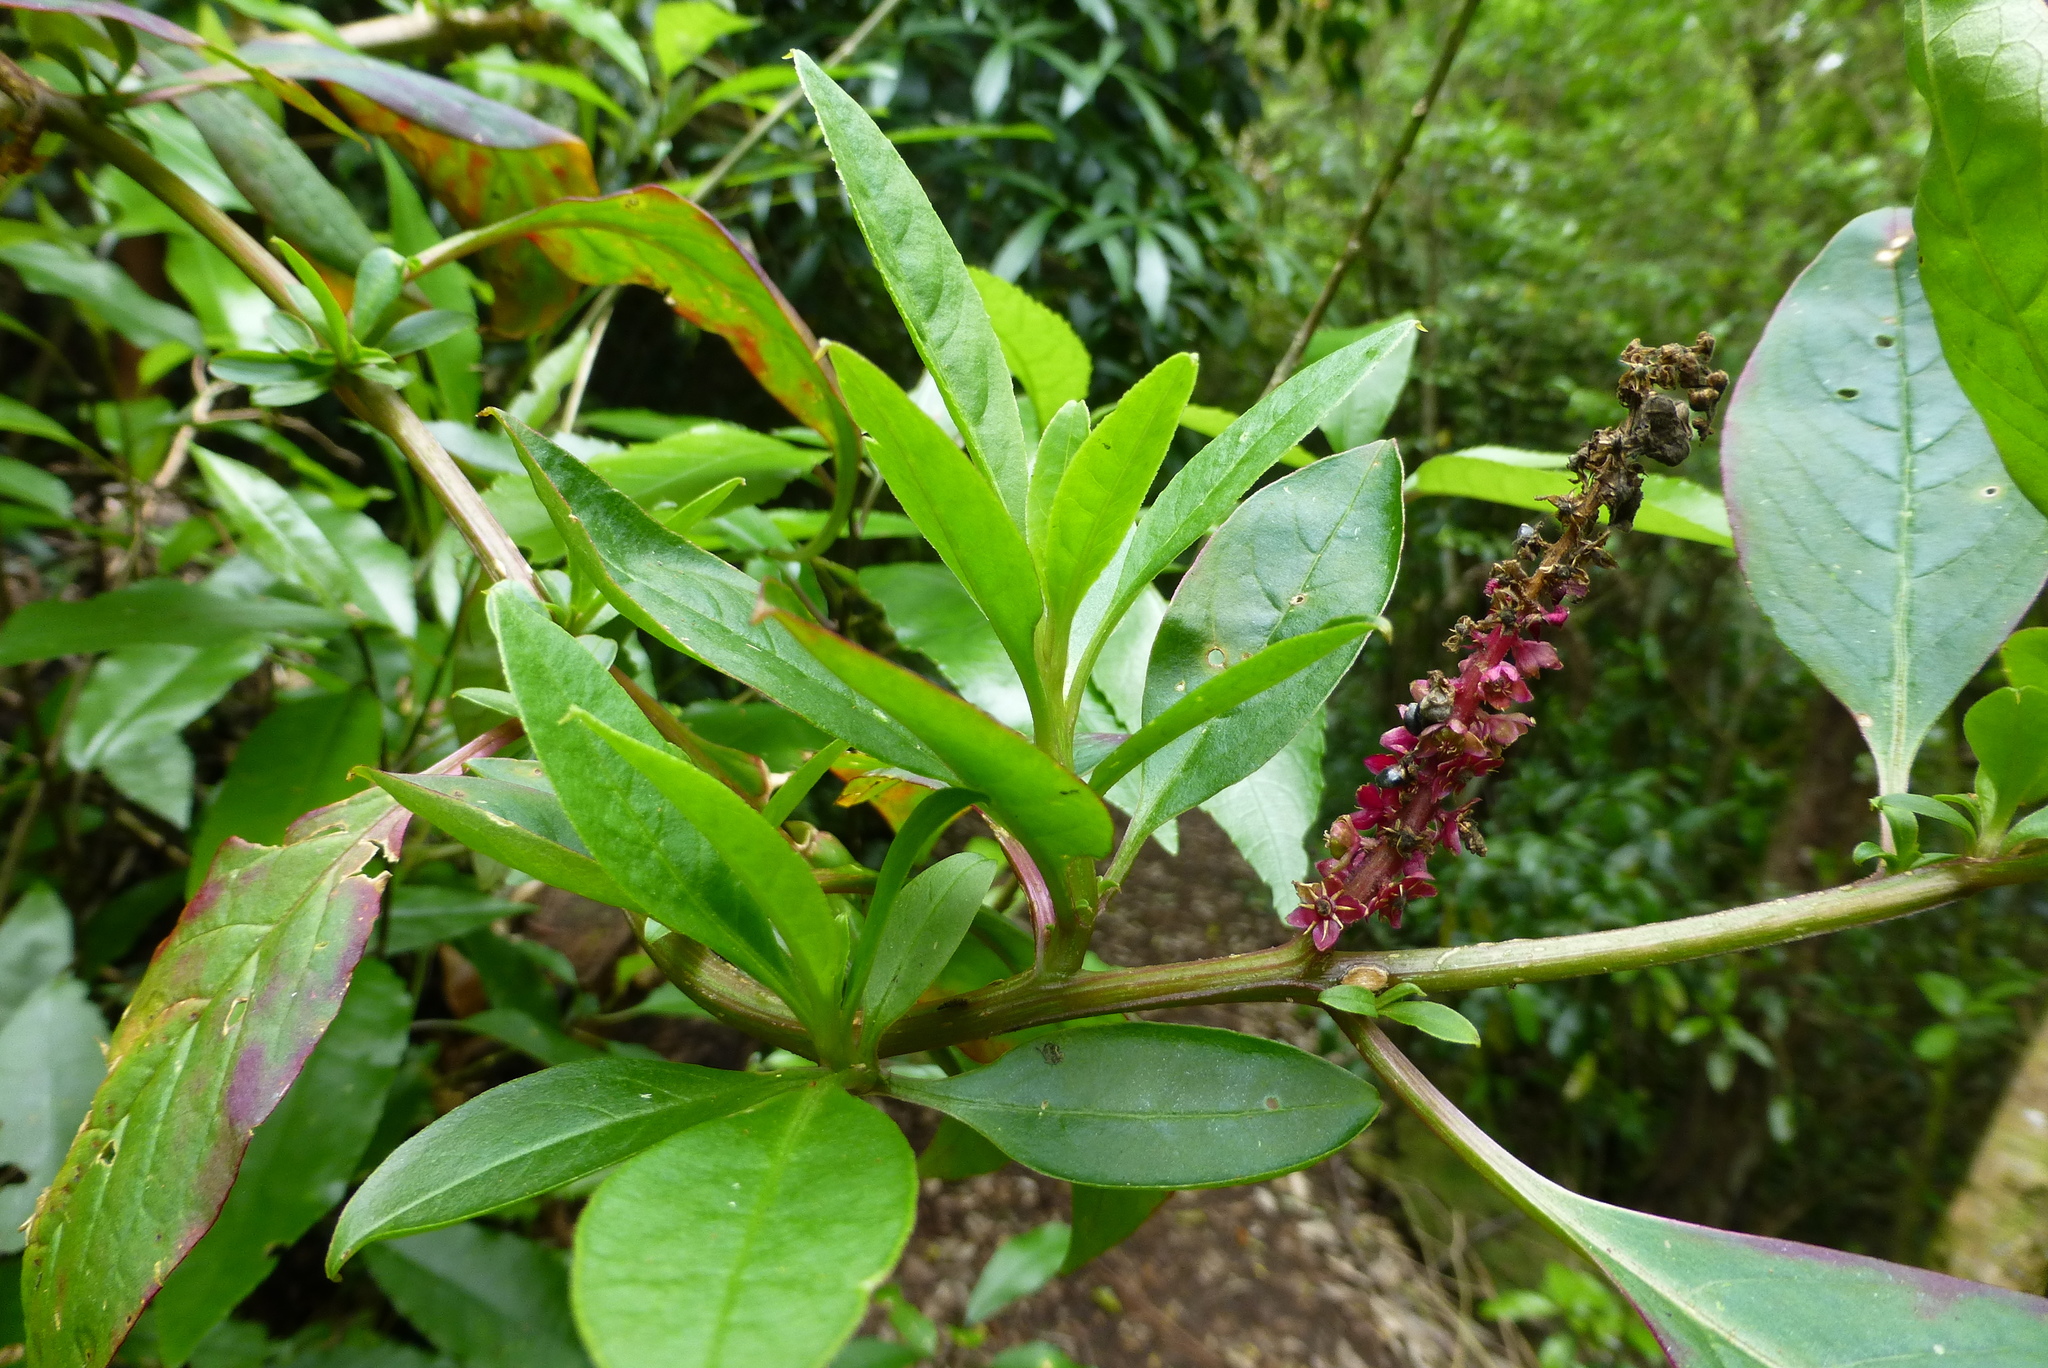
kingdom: Plantae
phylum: Tracheophyta
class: Magnoliopsida
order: Caryophyllales
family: Phytolaccaceae
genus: Phytolacca
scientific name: Phytolacca icosandra
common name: Button pokeweed
